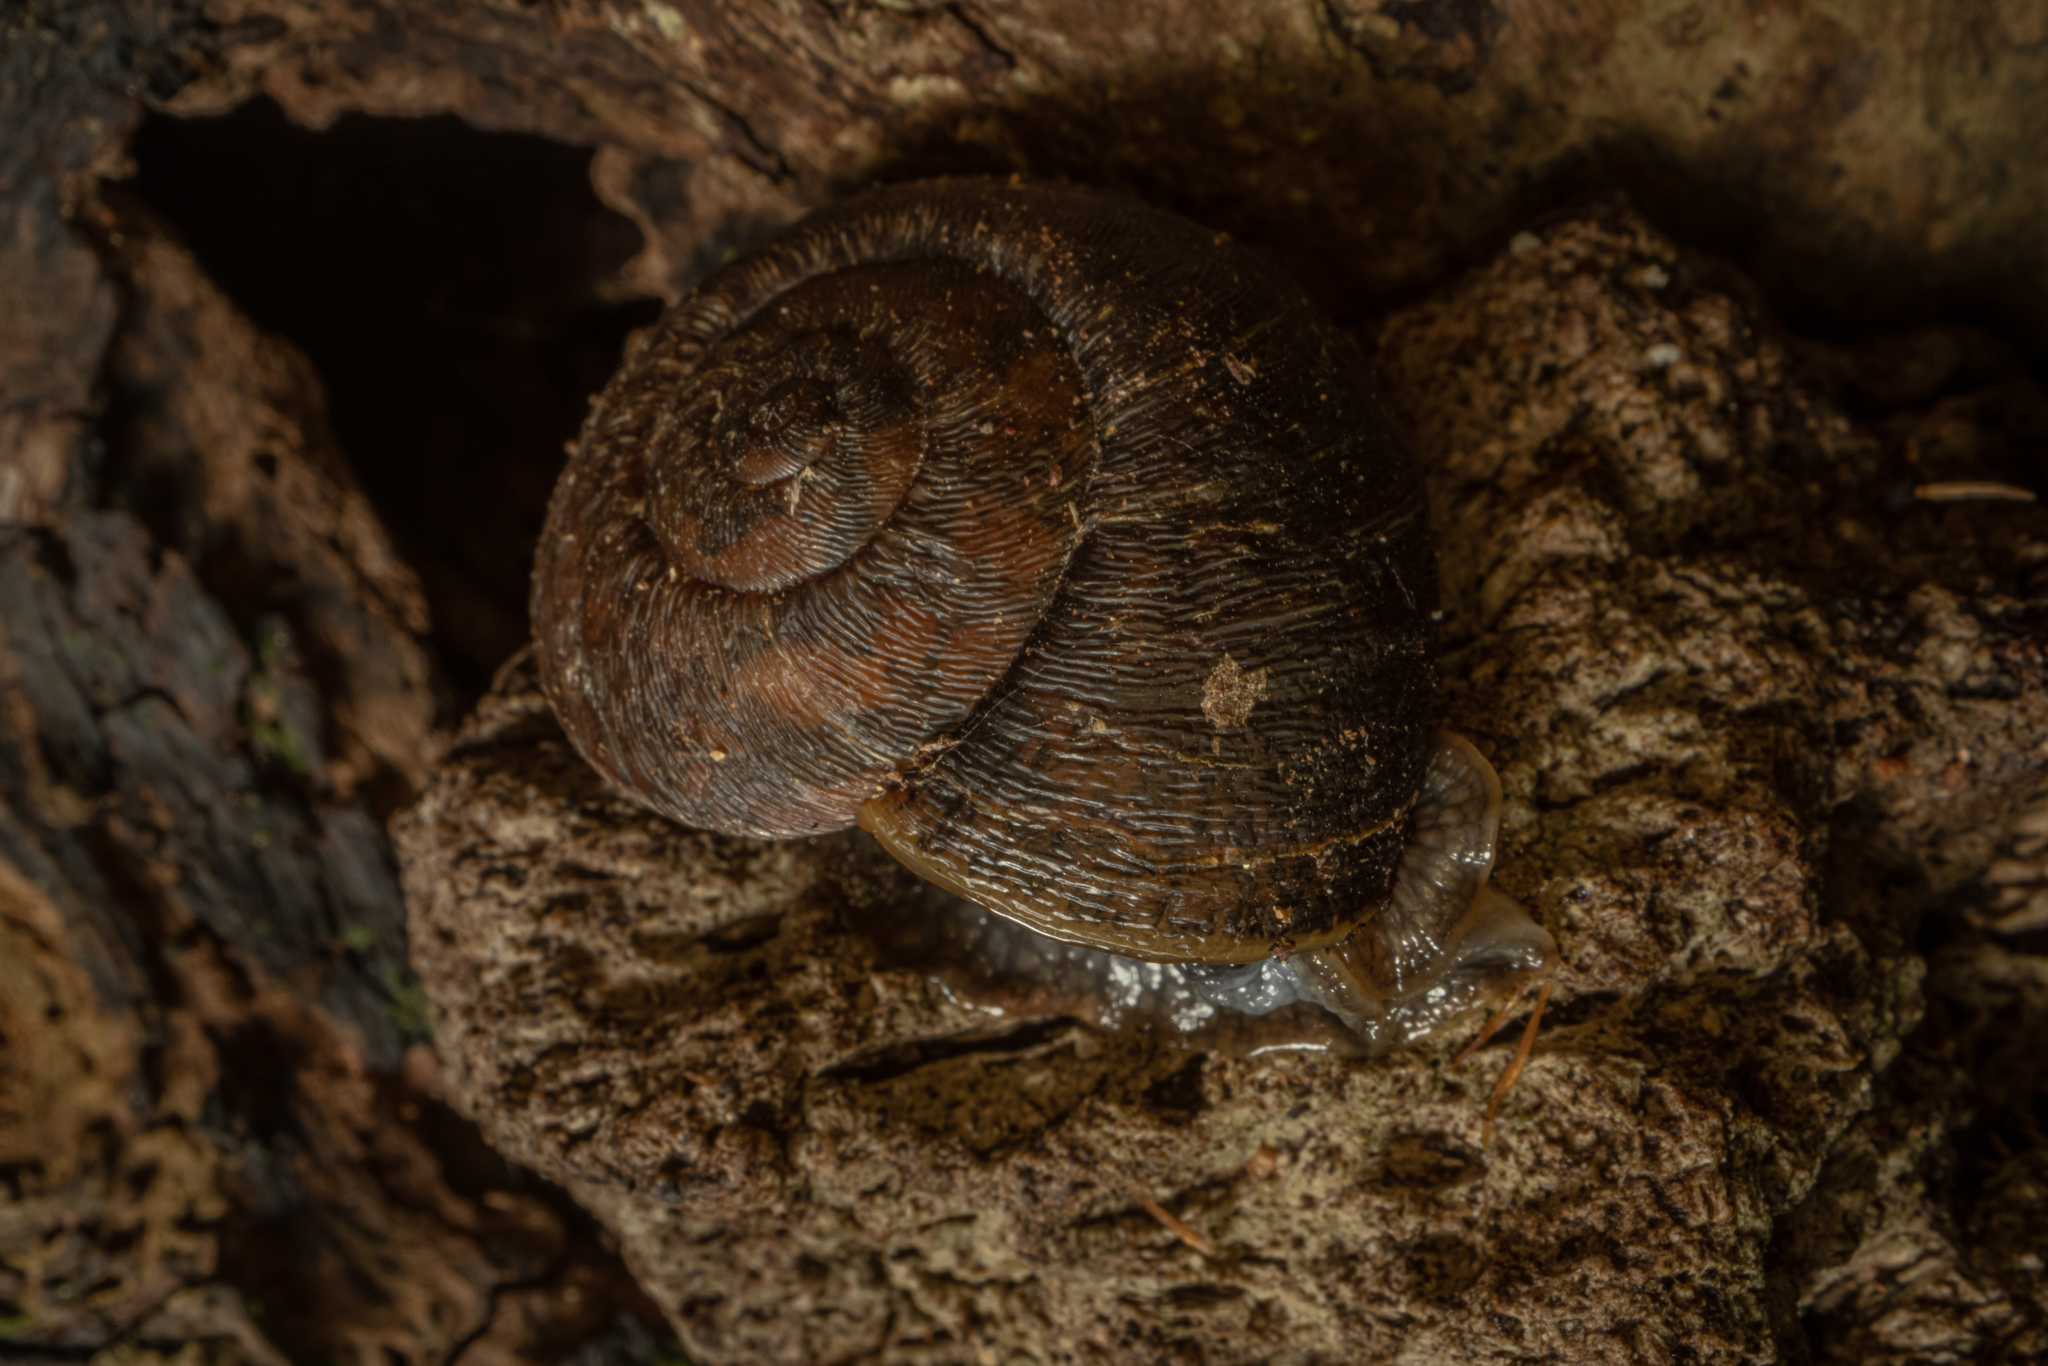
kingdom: Animalia
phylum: Mollusca
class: Gastropoda
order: Stylommatophora
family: Rhytididae
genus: Amborhytida
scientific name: Amborhytida dunniae
